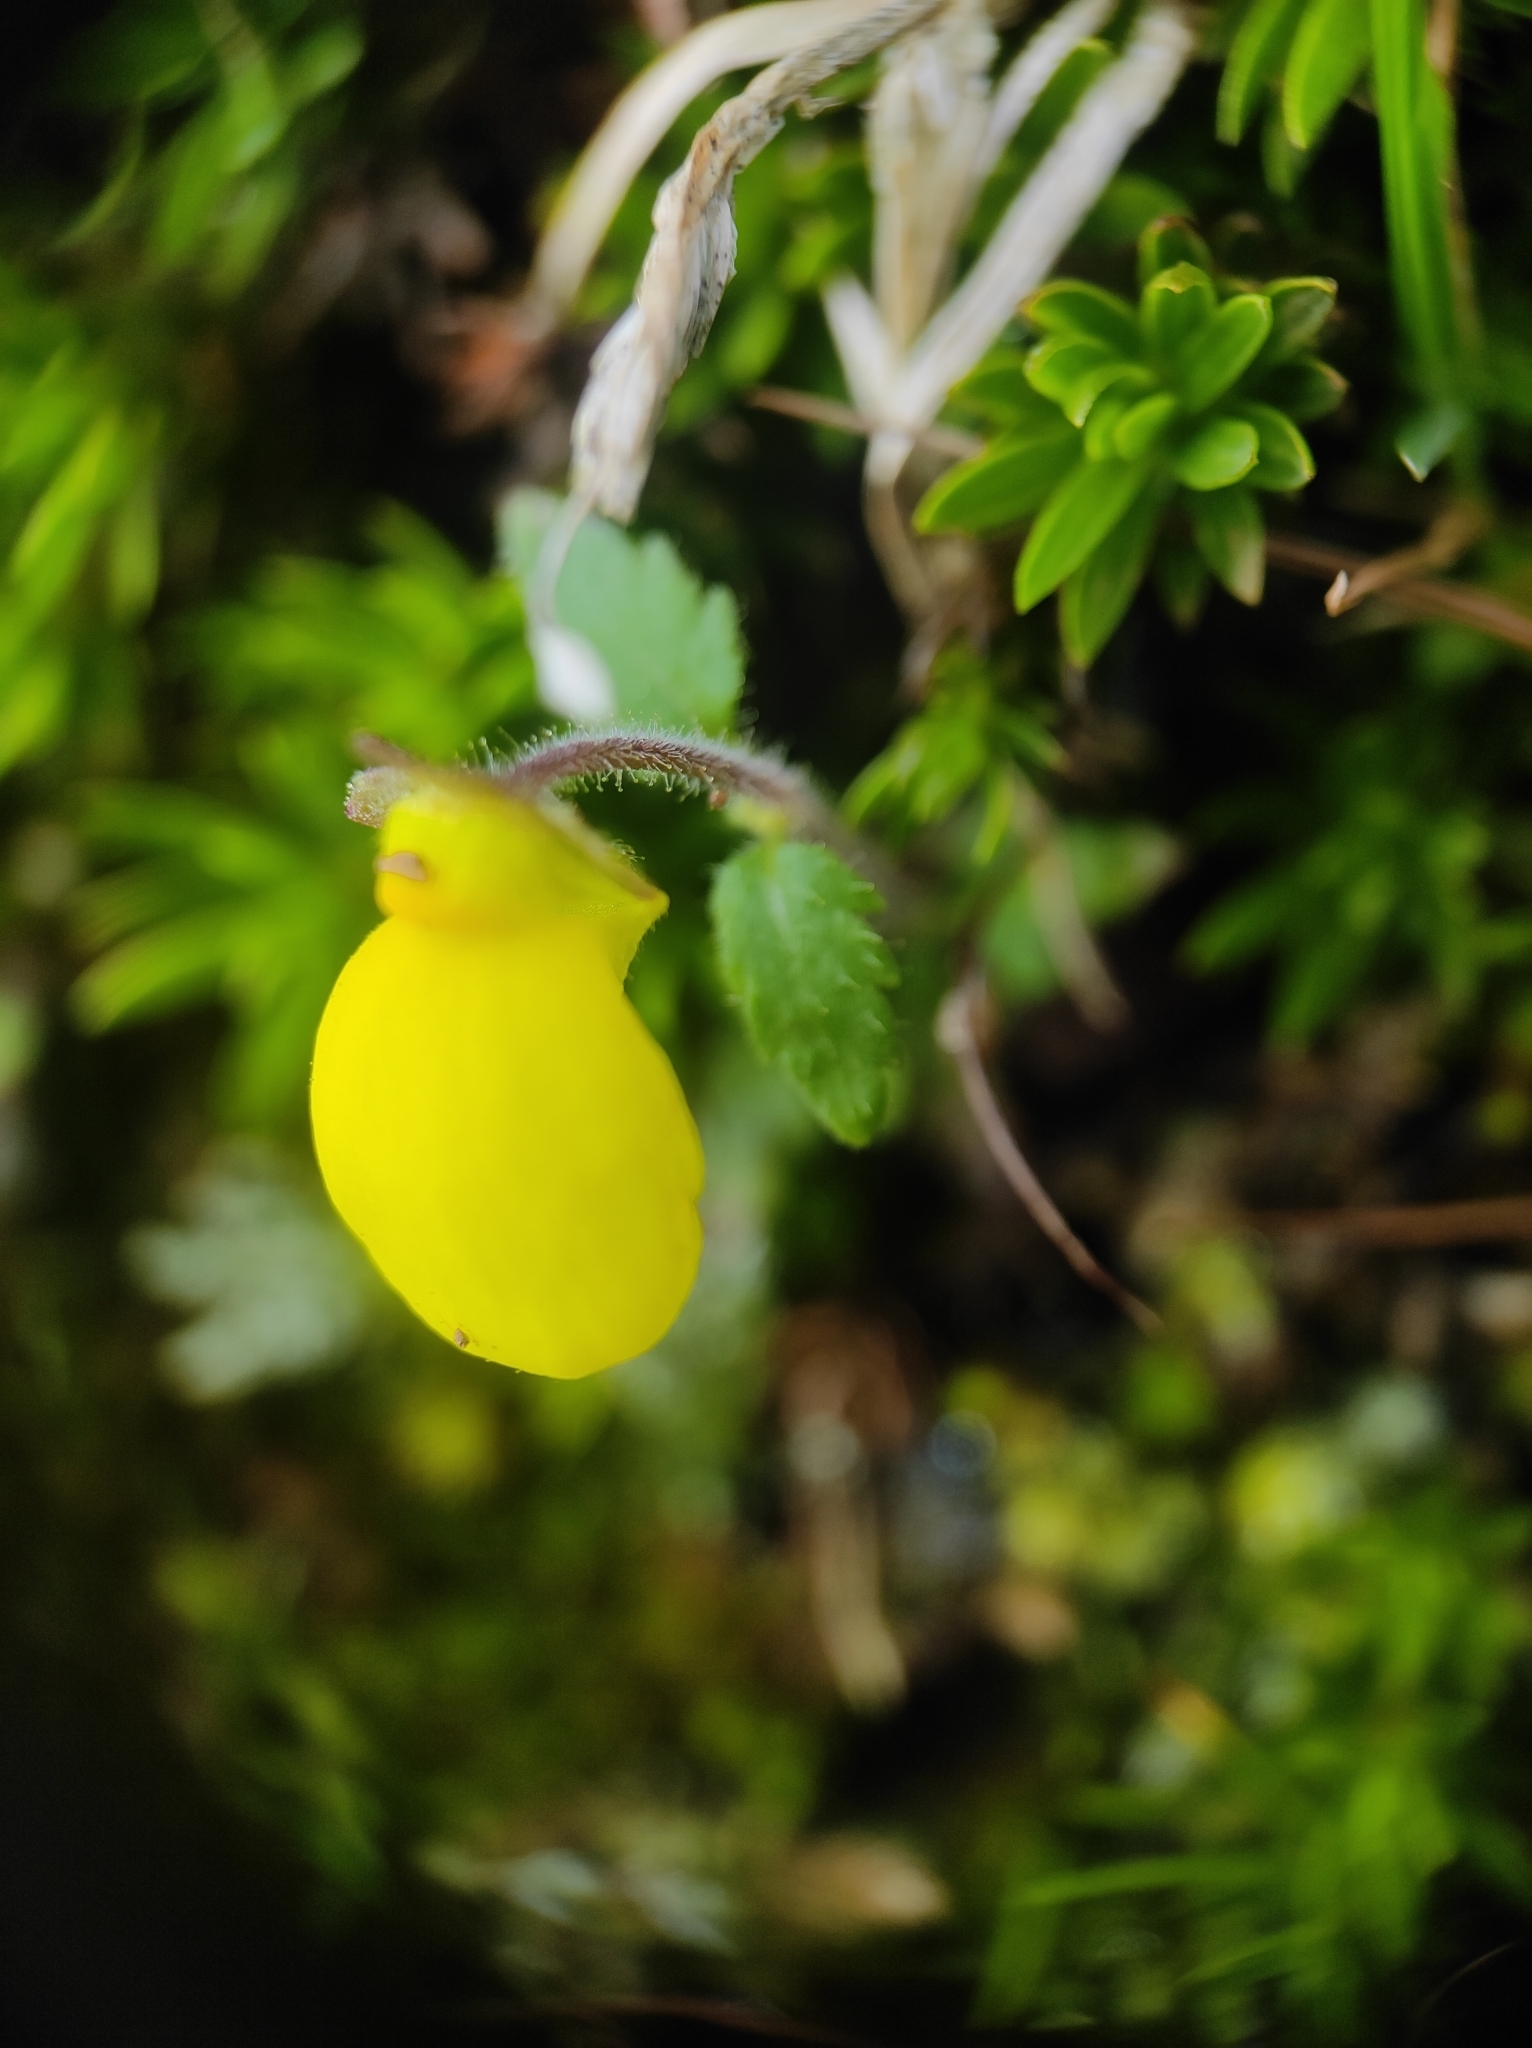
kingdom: Plantae
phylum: Tracheophyta
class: Magnoliopsida
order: Lamiales
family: Calceolariaceae
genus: Calceolaria
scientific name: Calceolaria tripartita
